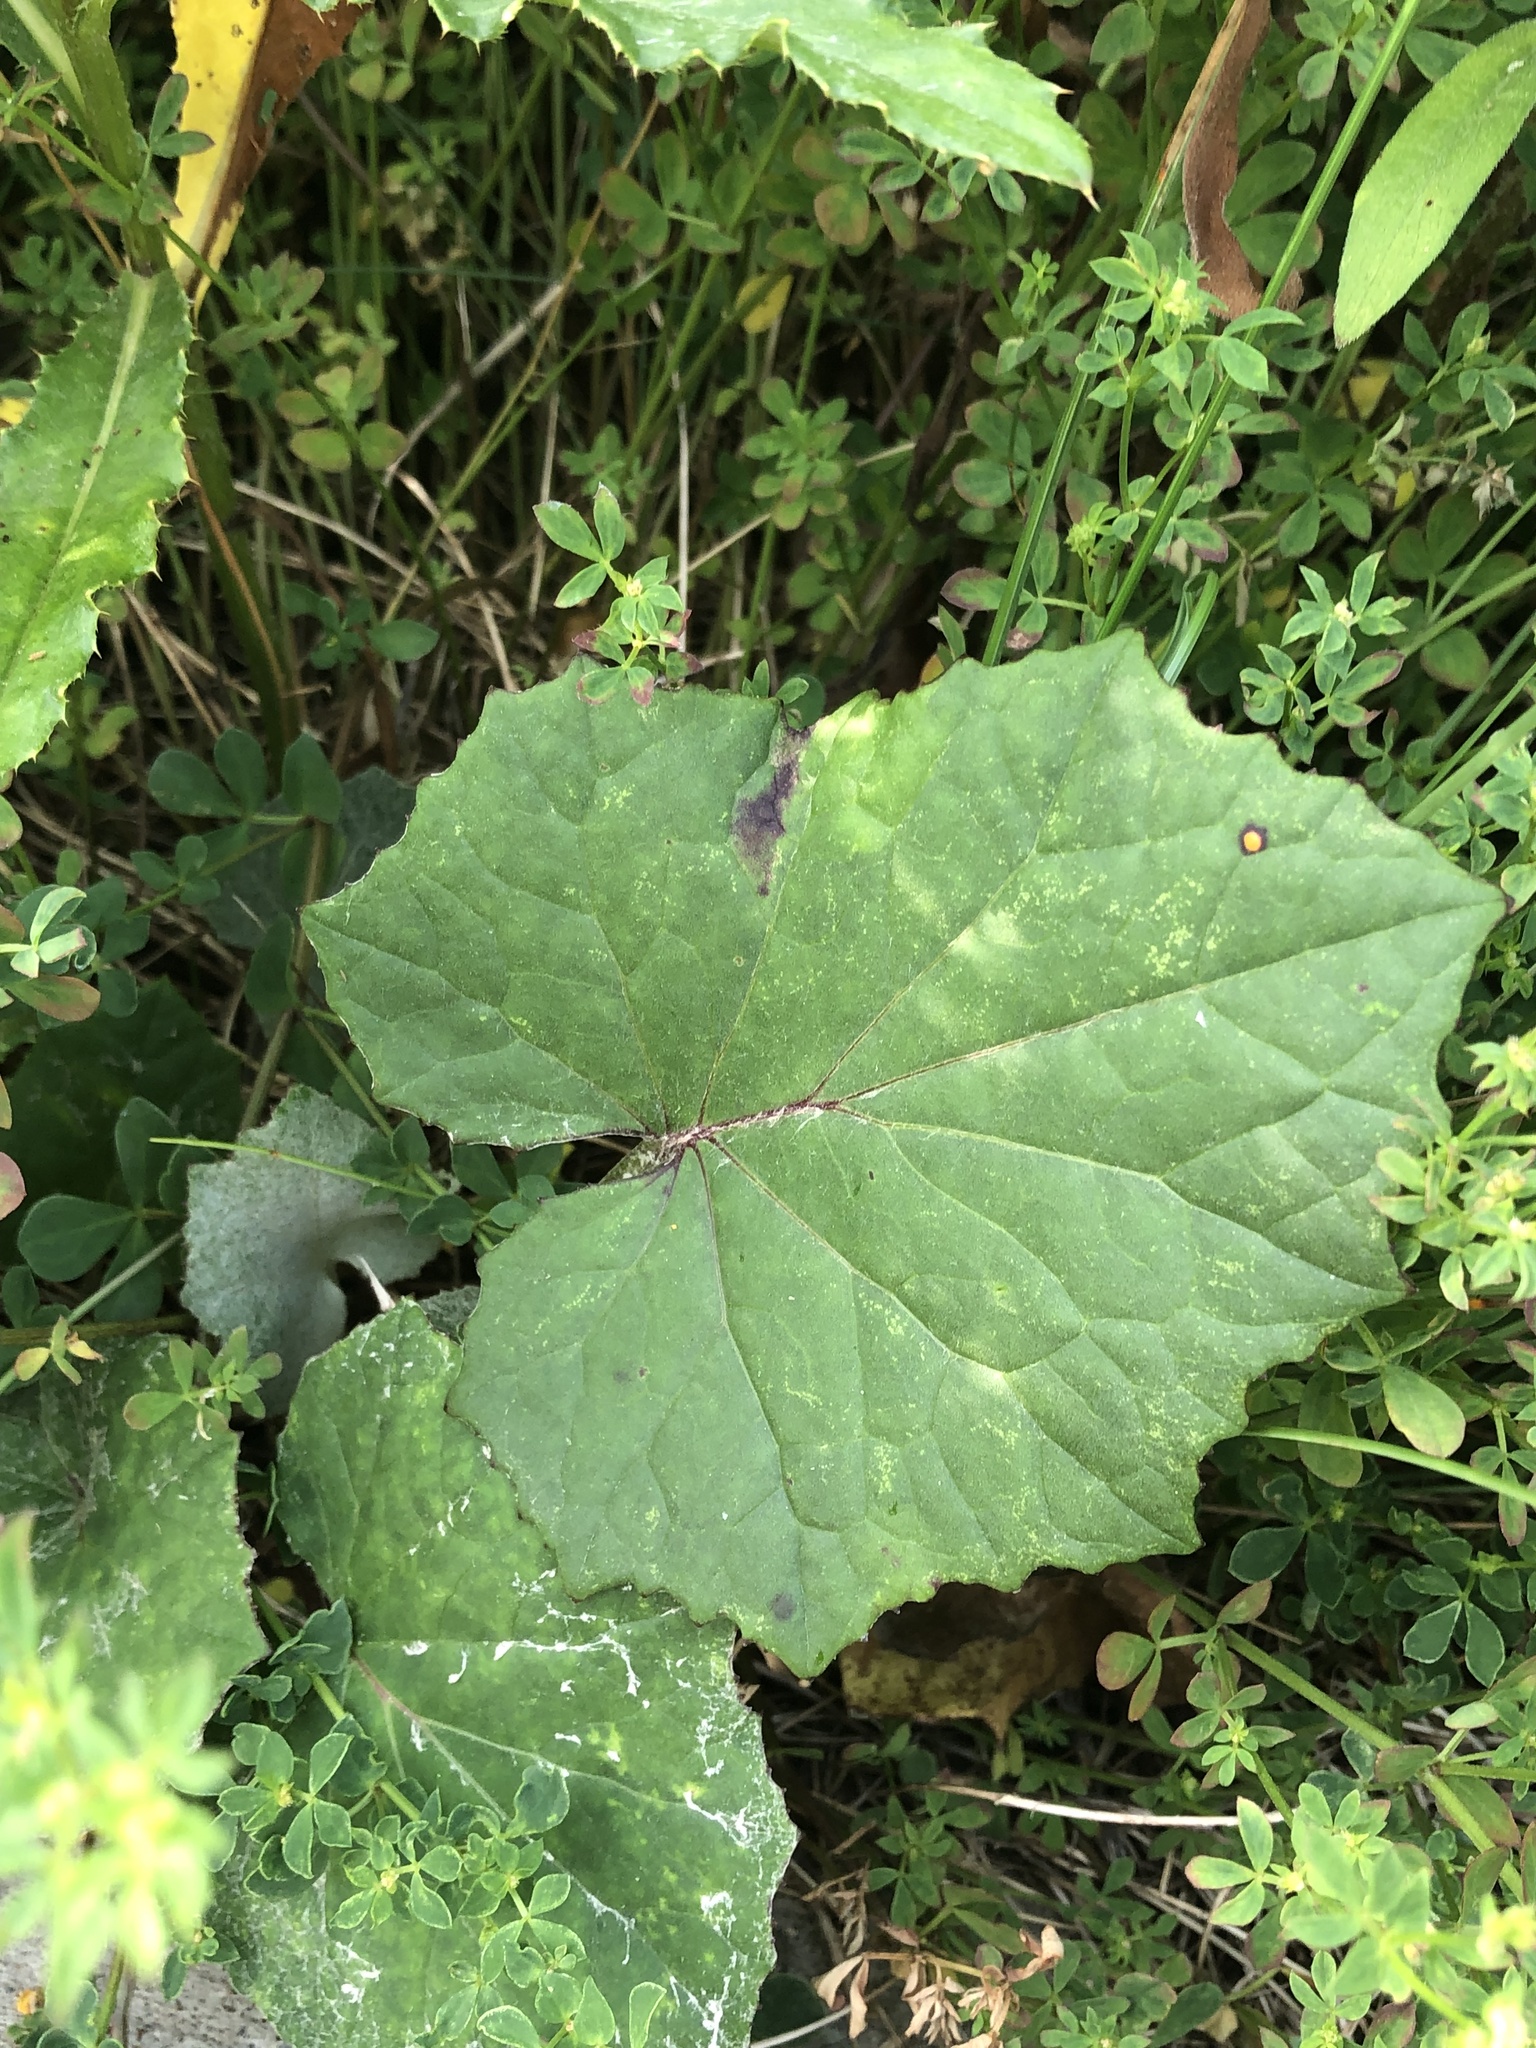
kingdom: Plantae
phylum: Tracheophyta
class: Magnoliopsida
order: Asterales
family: Asteraceae
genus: Tussilago
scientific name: Tussilago farfara
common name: Coltsfoot
